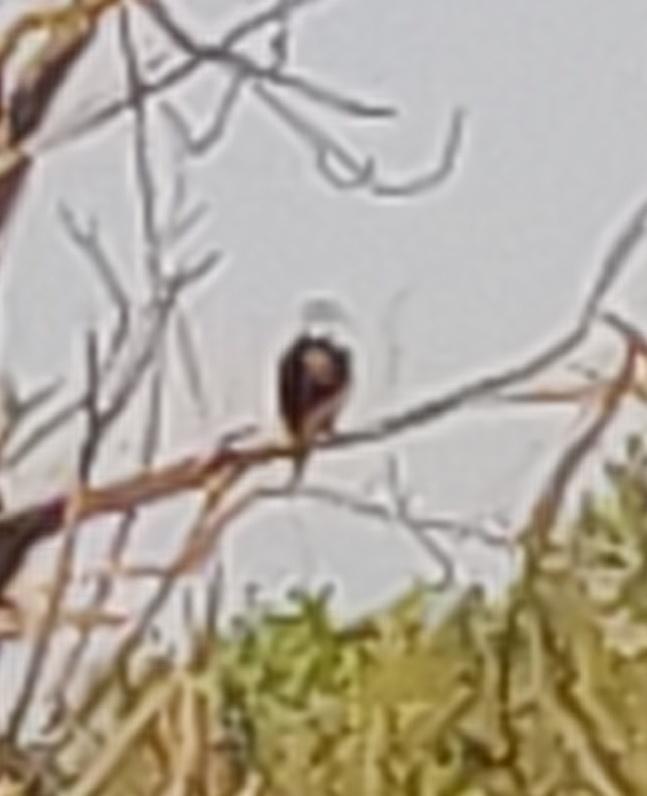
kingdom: Animalia
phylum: Chordata
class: Aves
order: Accipitriformes
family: Accipitridae
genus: Haliaeetus
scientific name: Haliaeetus leucocephalus
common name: Bald eagle
